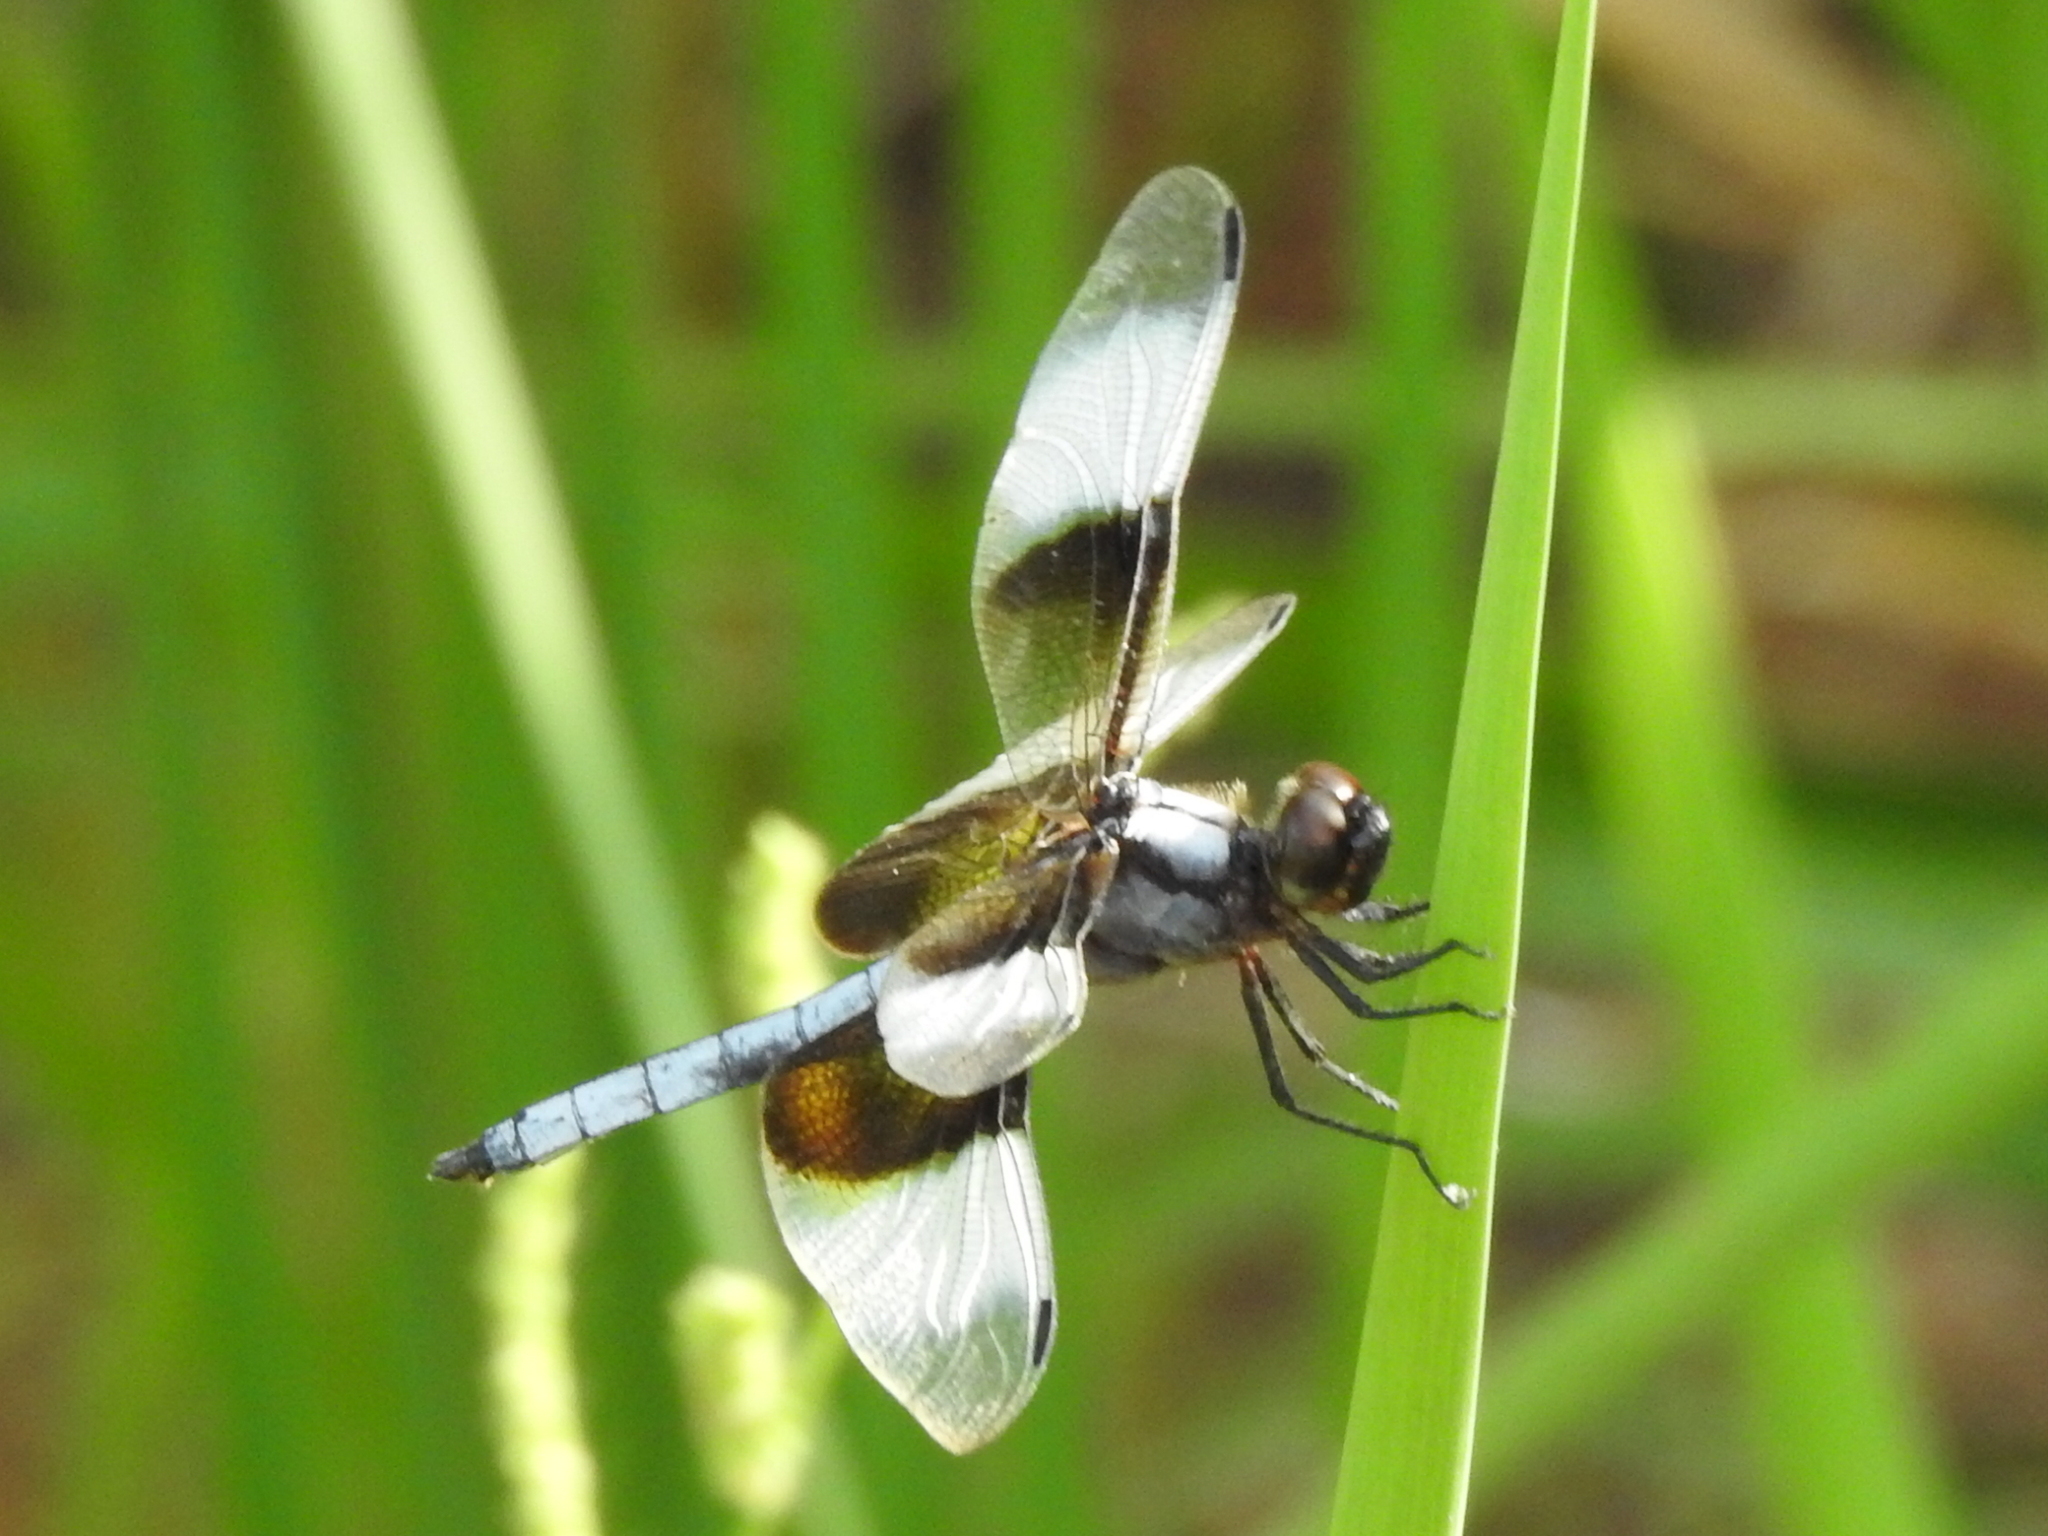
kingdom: Animalia
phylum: Arthropoda
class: Insecta
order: Odonata
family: Libellulidae
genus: Libellula
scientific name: Libellula luctuosa
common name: Widow skimmer
